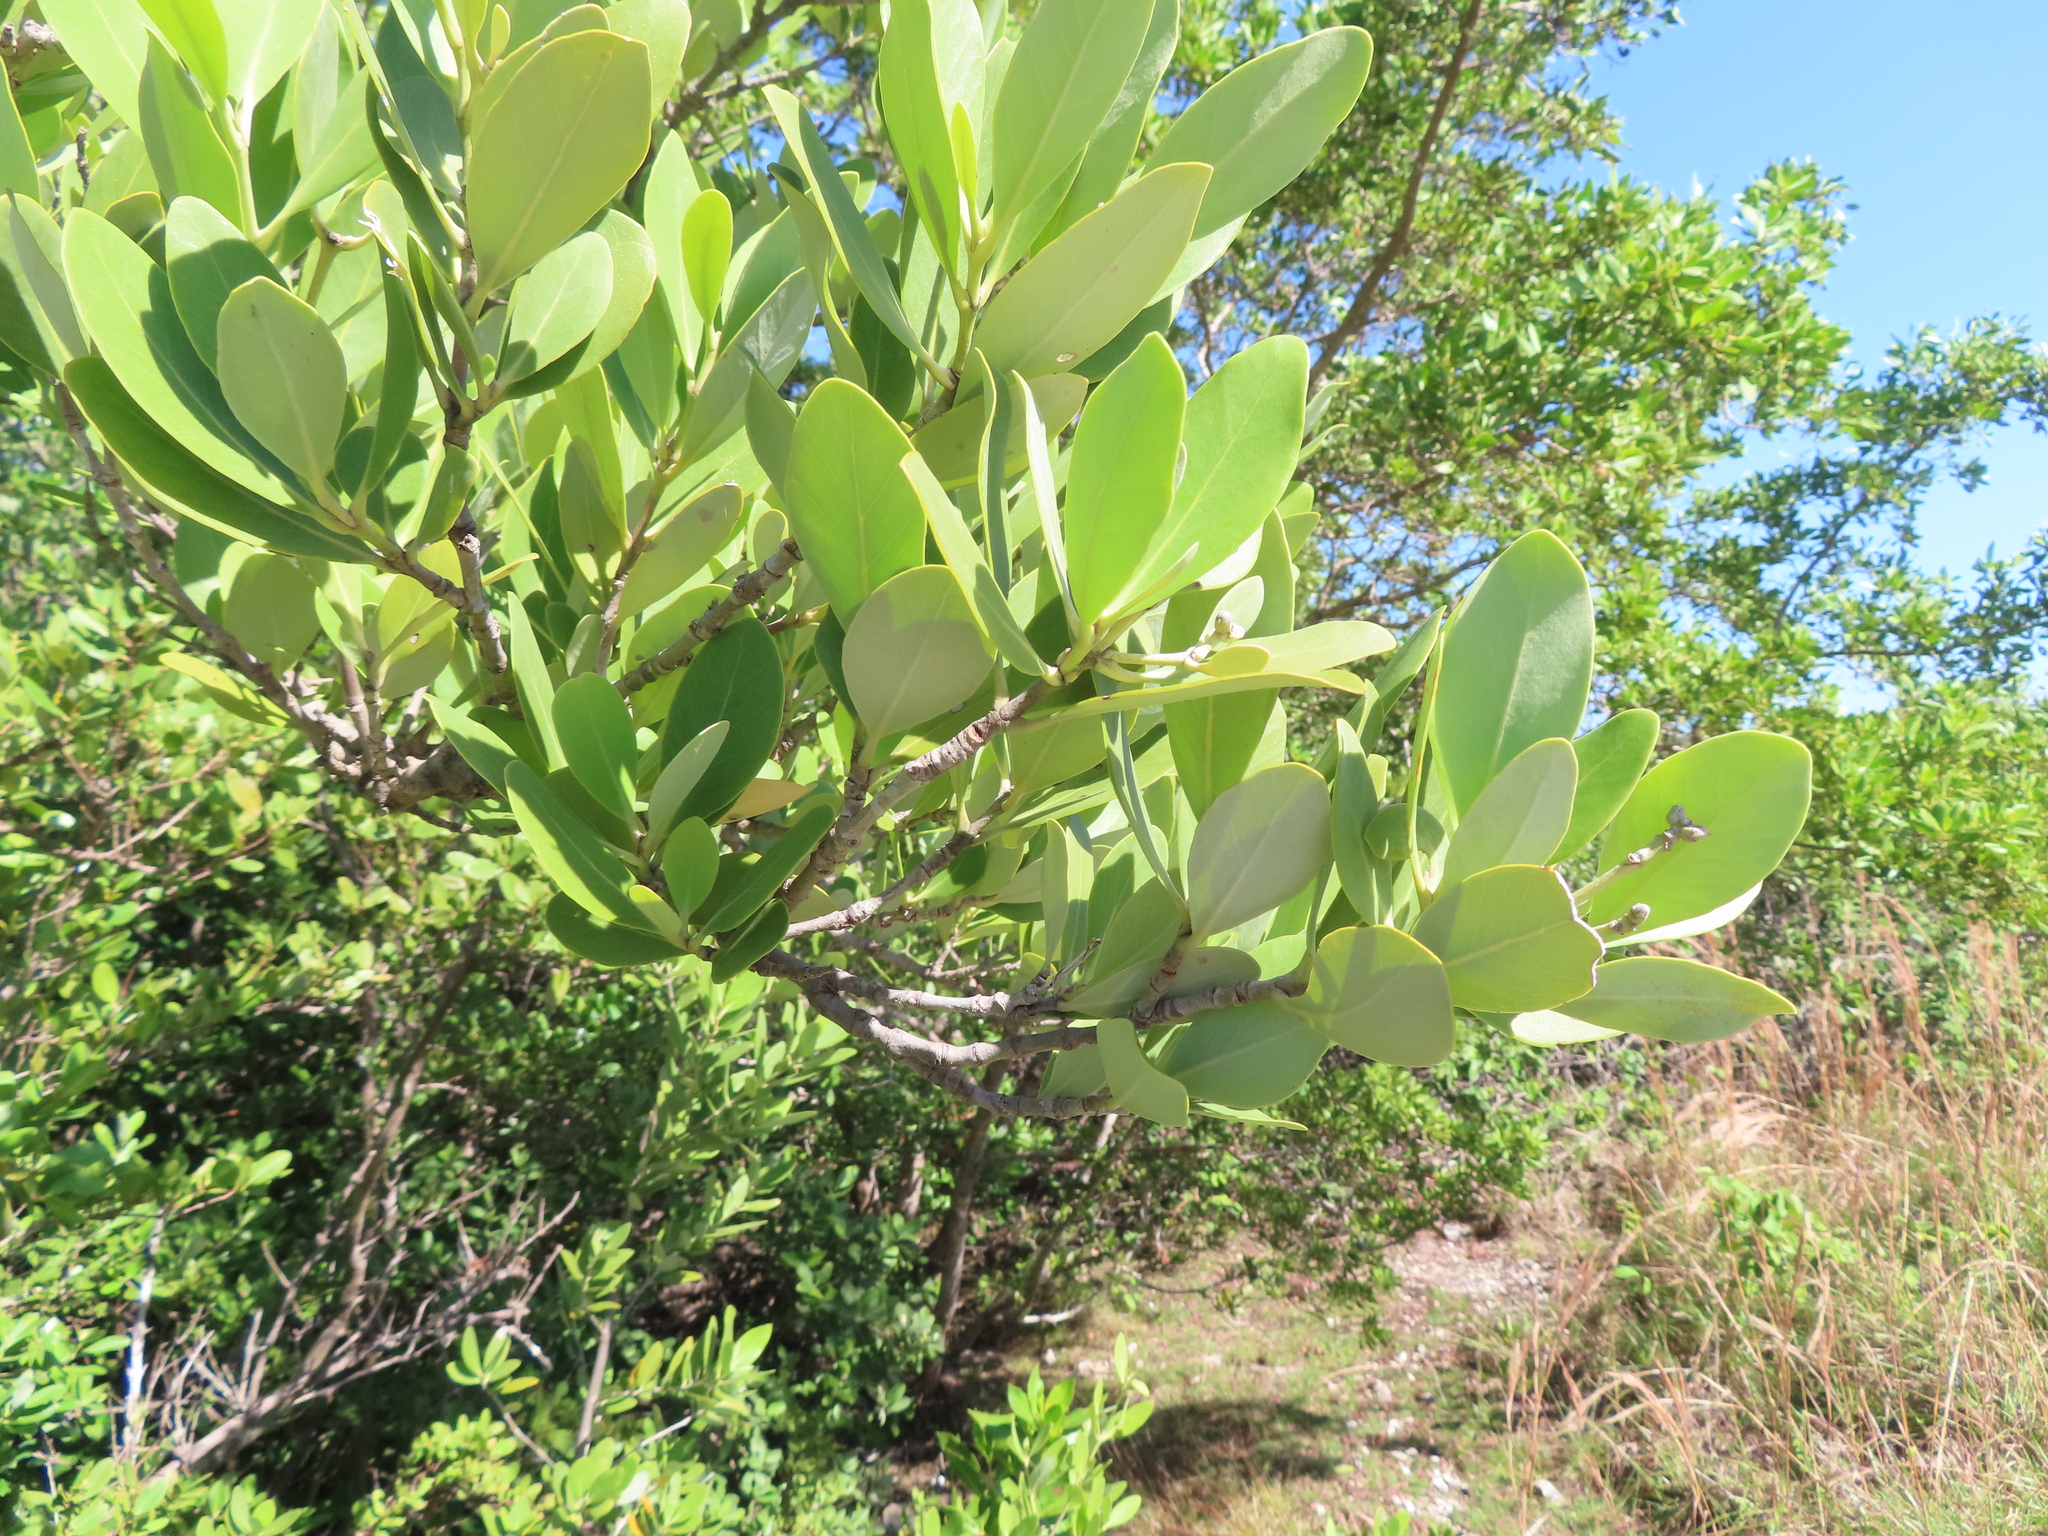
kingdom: Plantae
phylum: Tracheophyta
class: Magnoliopsida
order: Lamiales
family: Acanthaceae
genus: Avicennia
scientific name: Avicennia germinans
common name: Black mangrove
